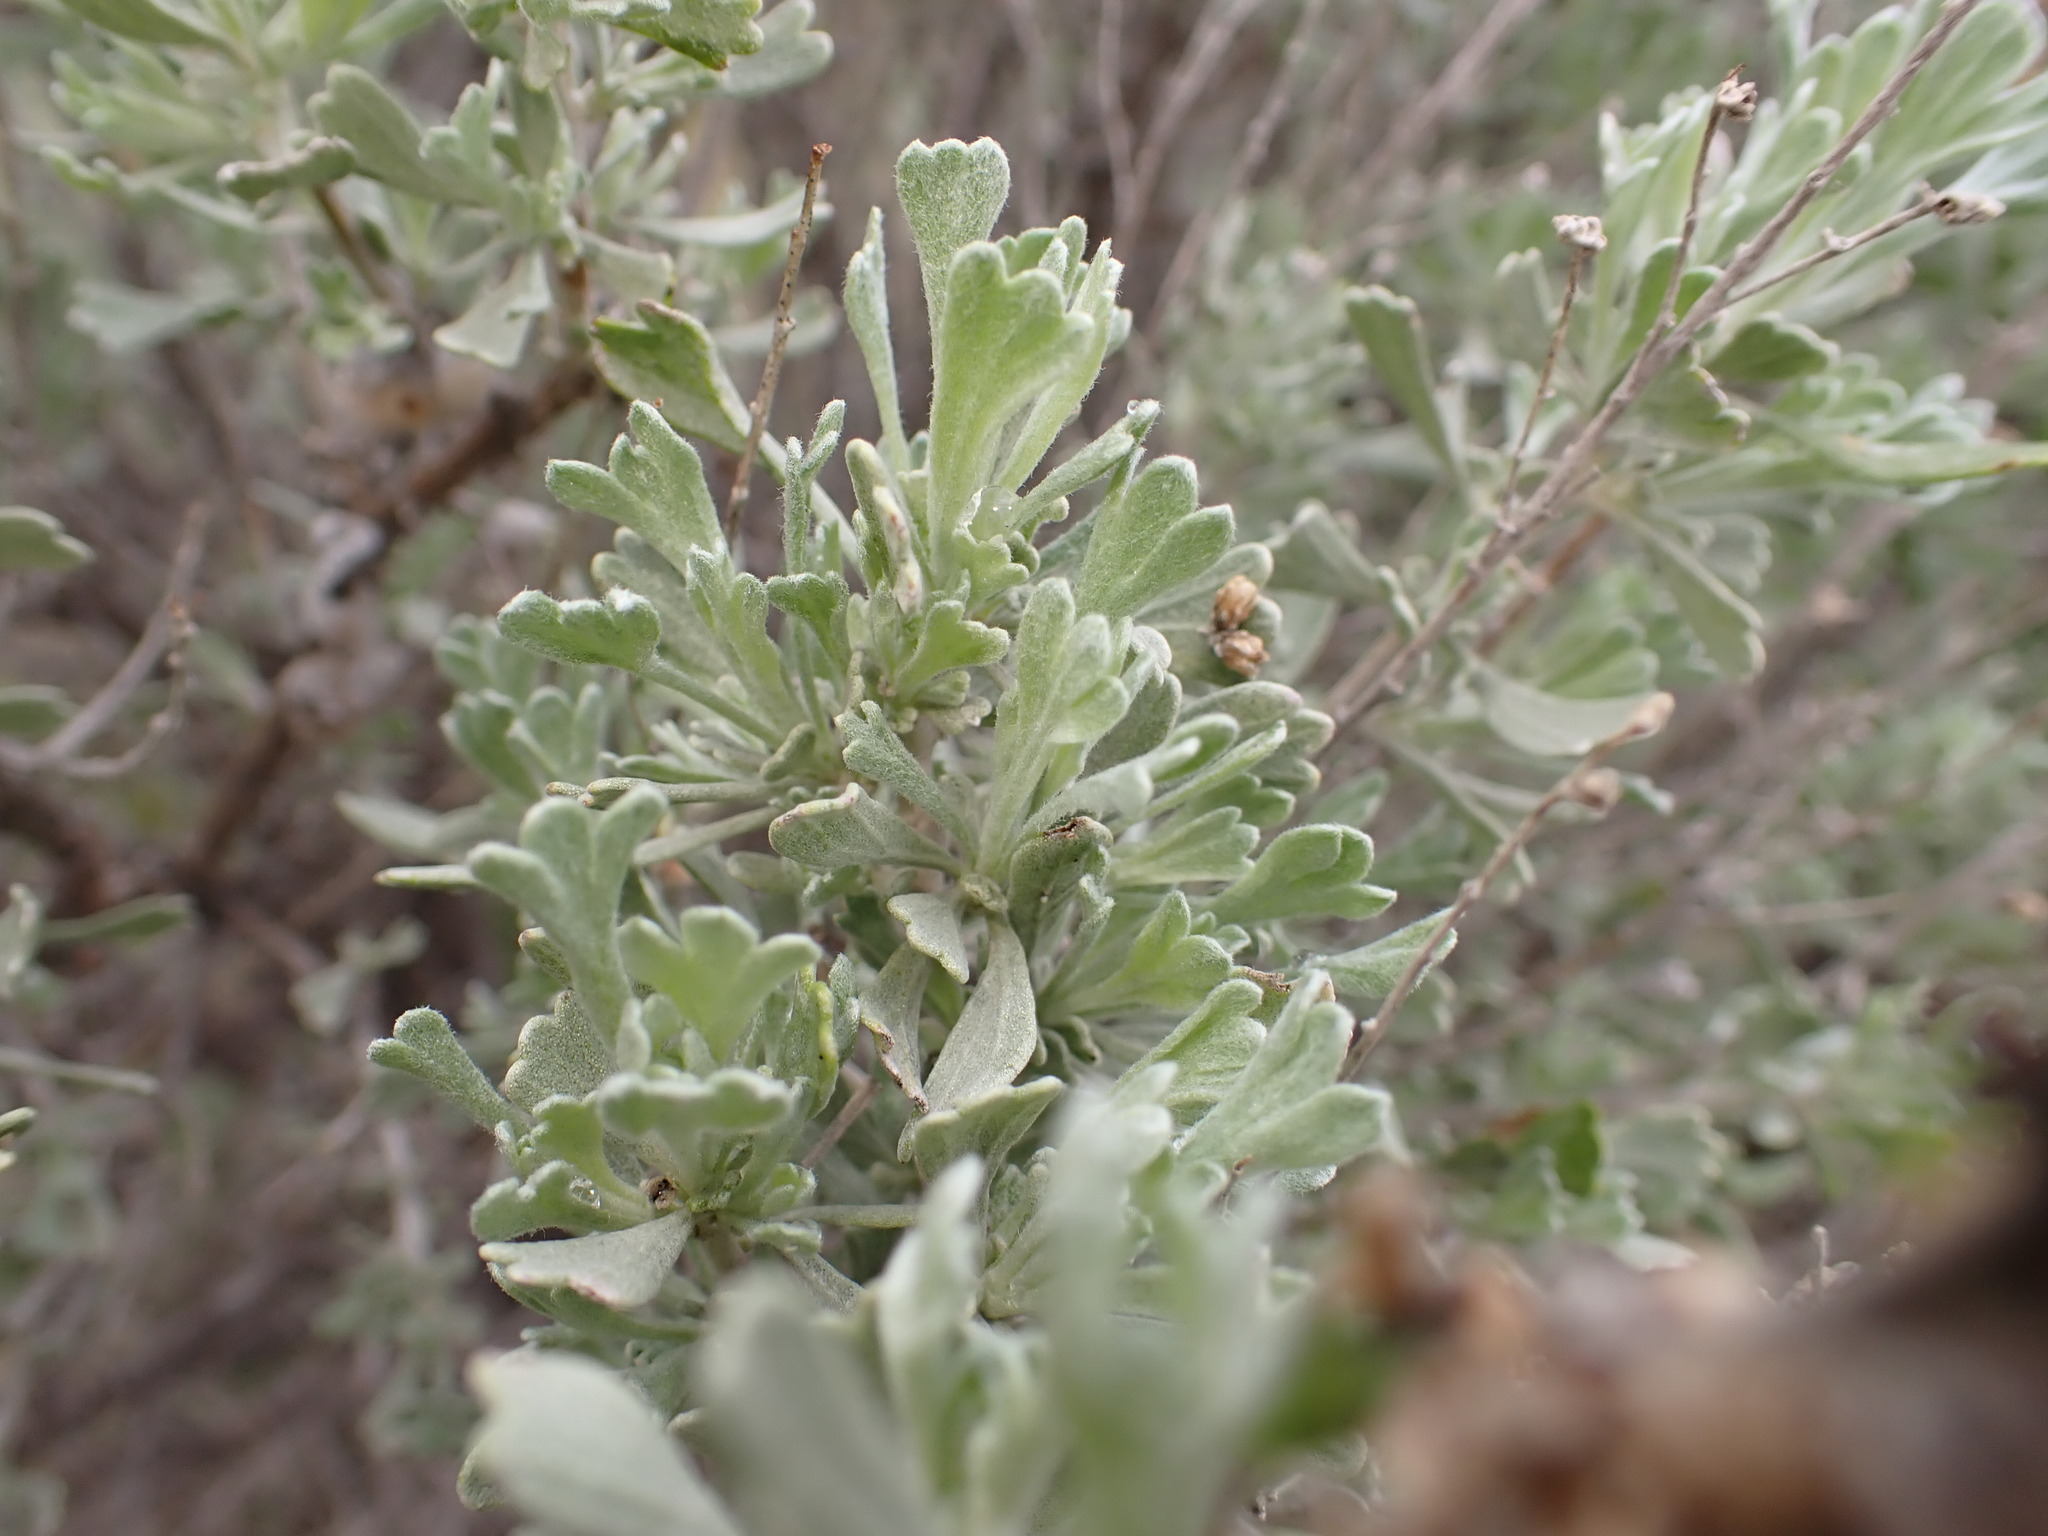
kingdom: Plantae
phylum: Tracheophyta
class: Magnoliopsida
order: Asterales
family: Asteraceae
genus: Artemisia
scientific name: Artemisia tridentata
